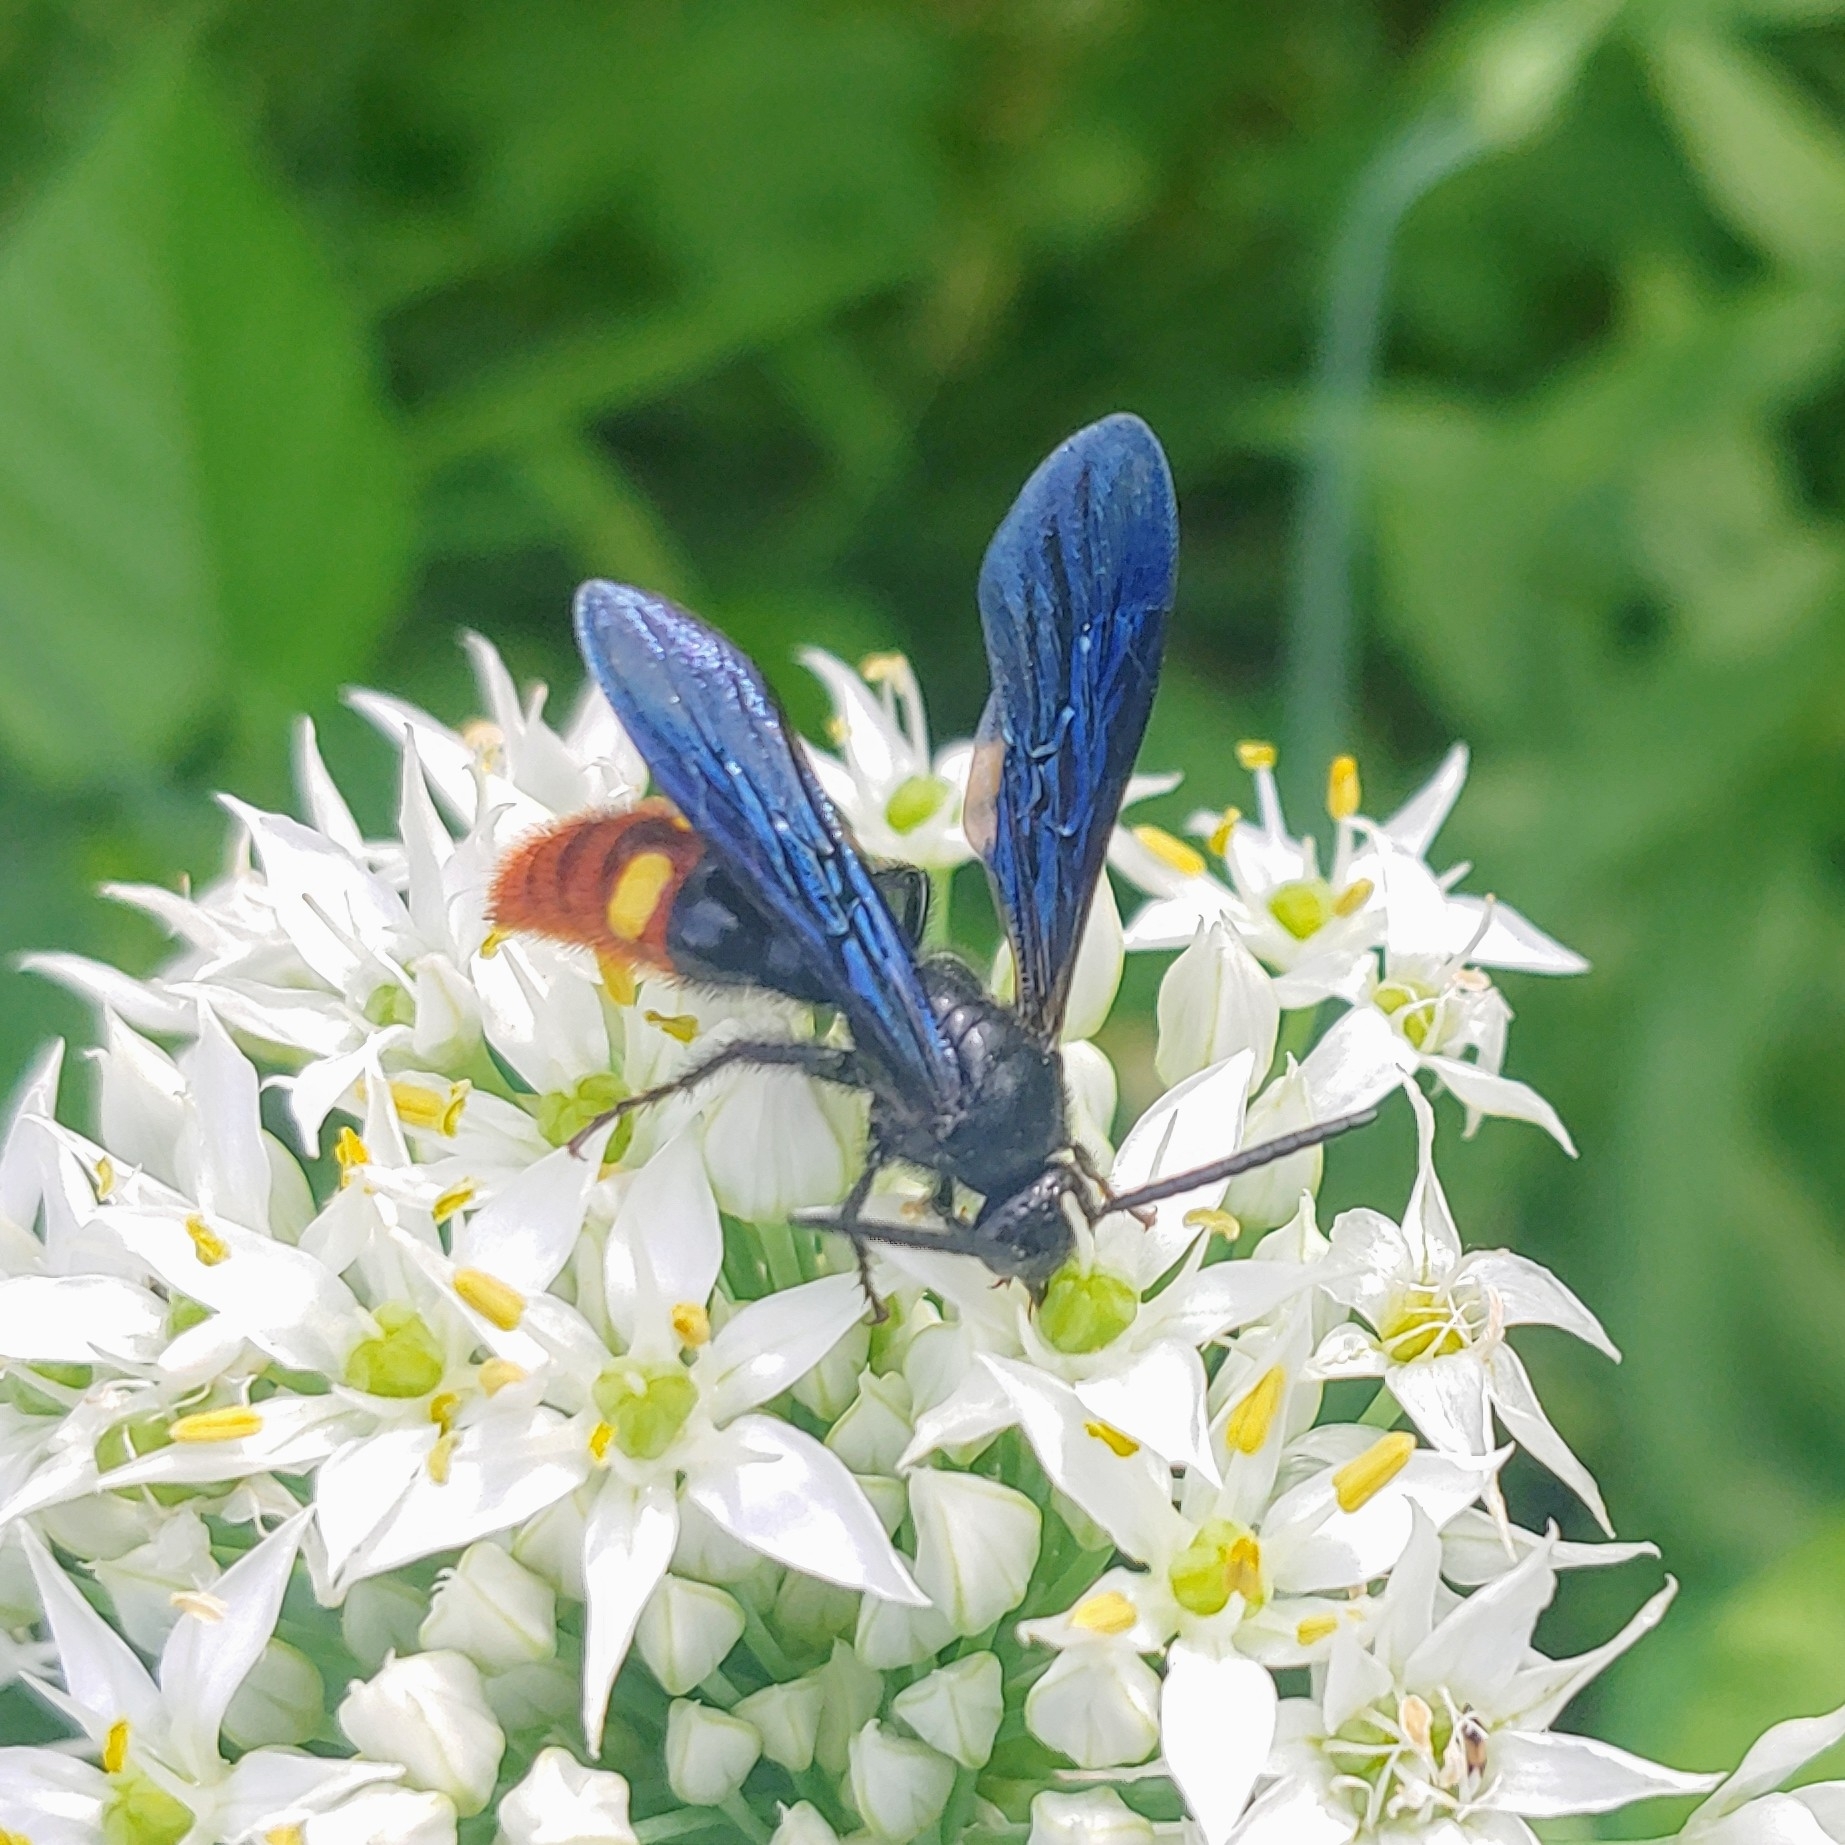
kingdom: Animalia
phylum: Arthropoda
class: Insecta
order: Hymenoptera
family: Scoliidae
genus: Scolia
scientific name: Scolia dubia
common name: Blue-winged scoliid wasp
